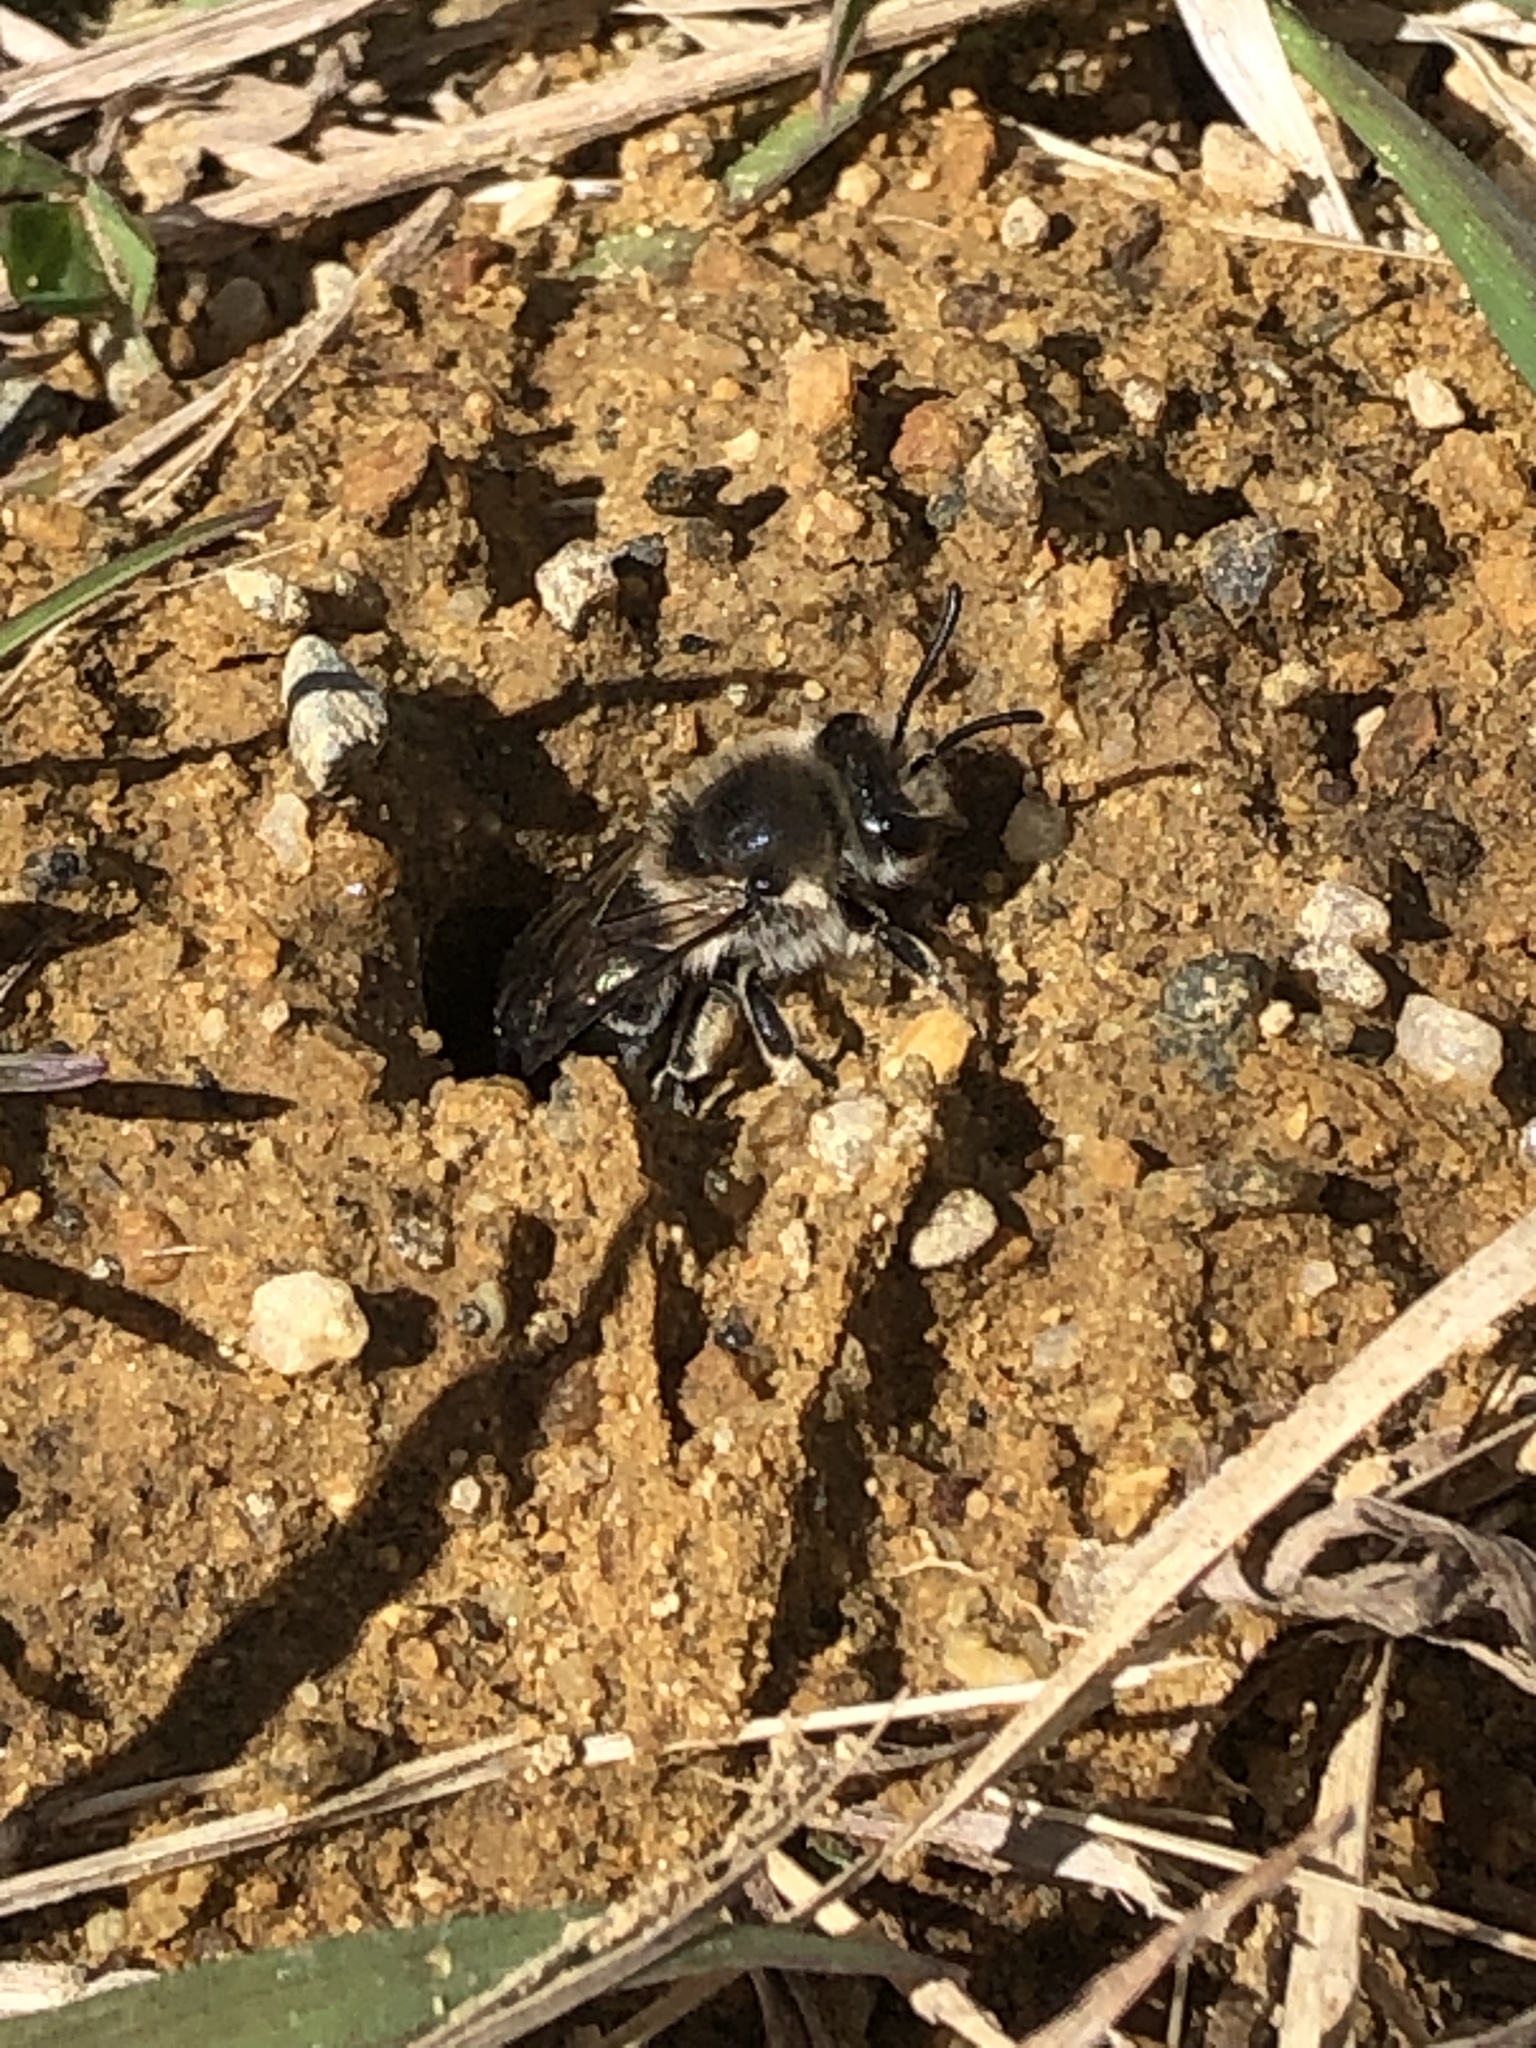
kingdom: Animalia
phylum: Arthropoda
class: Insecta
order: Hymenoptera
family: Colletidae
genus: Colletes
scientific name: Colletes inaequalis
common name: Unequal cellophane bee
